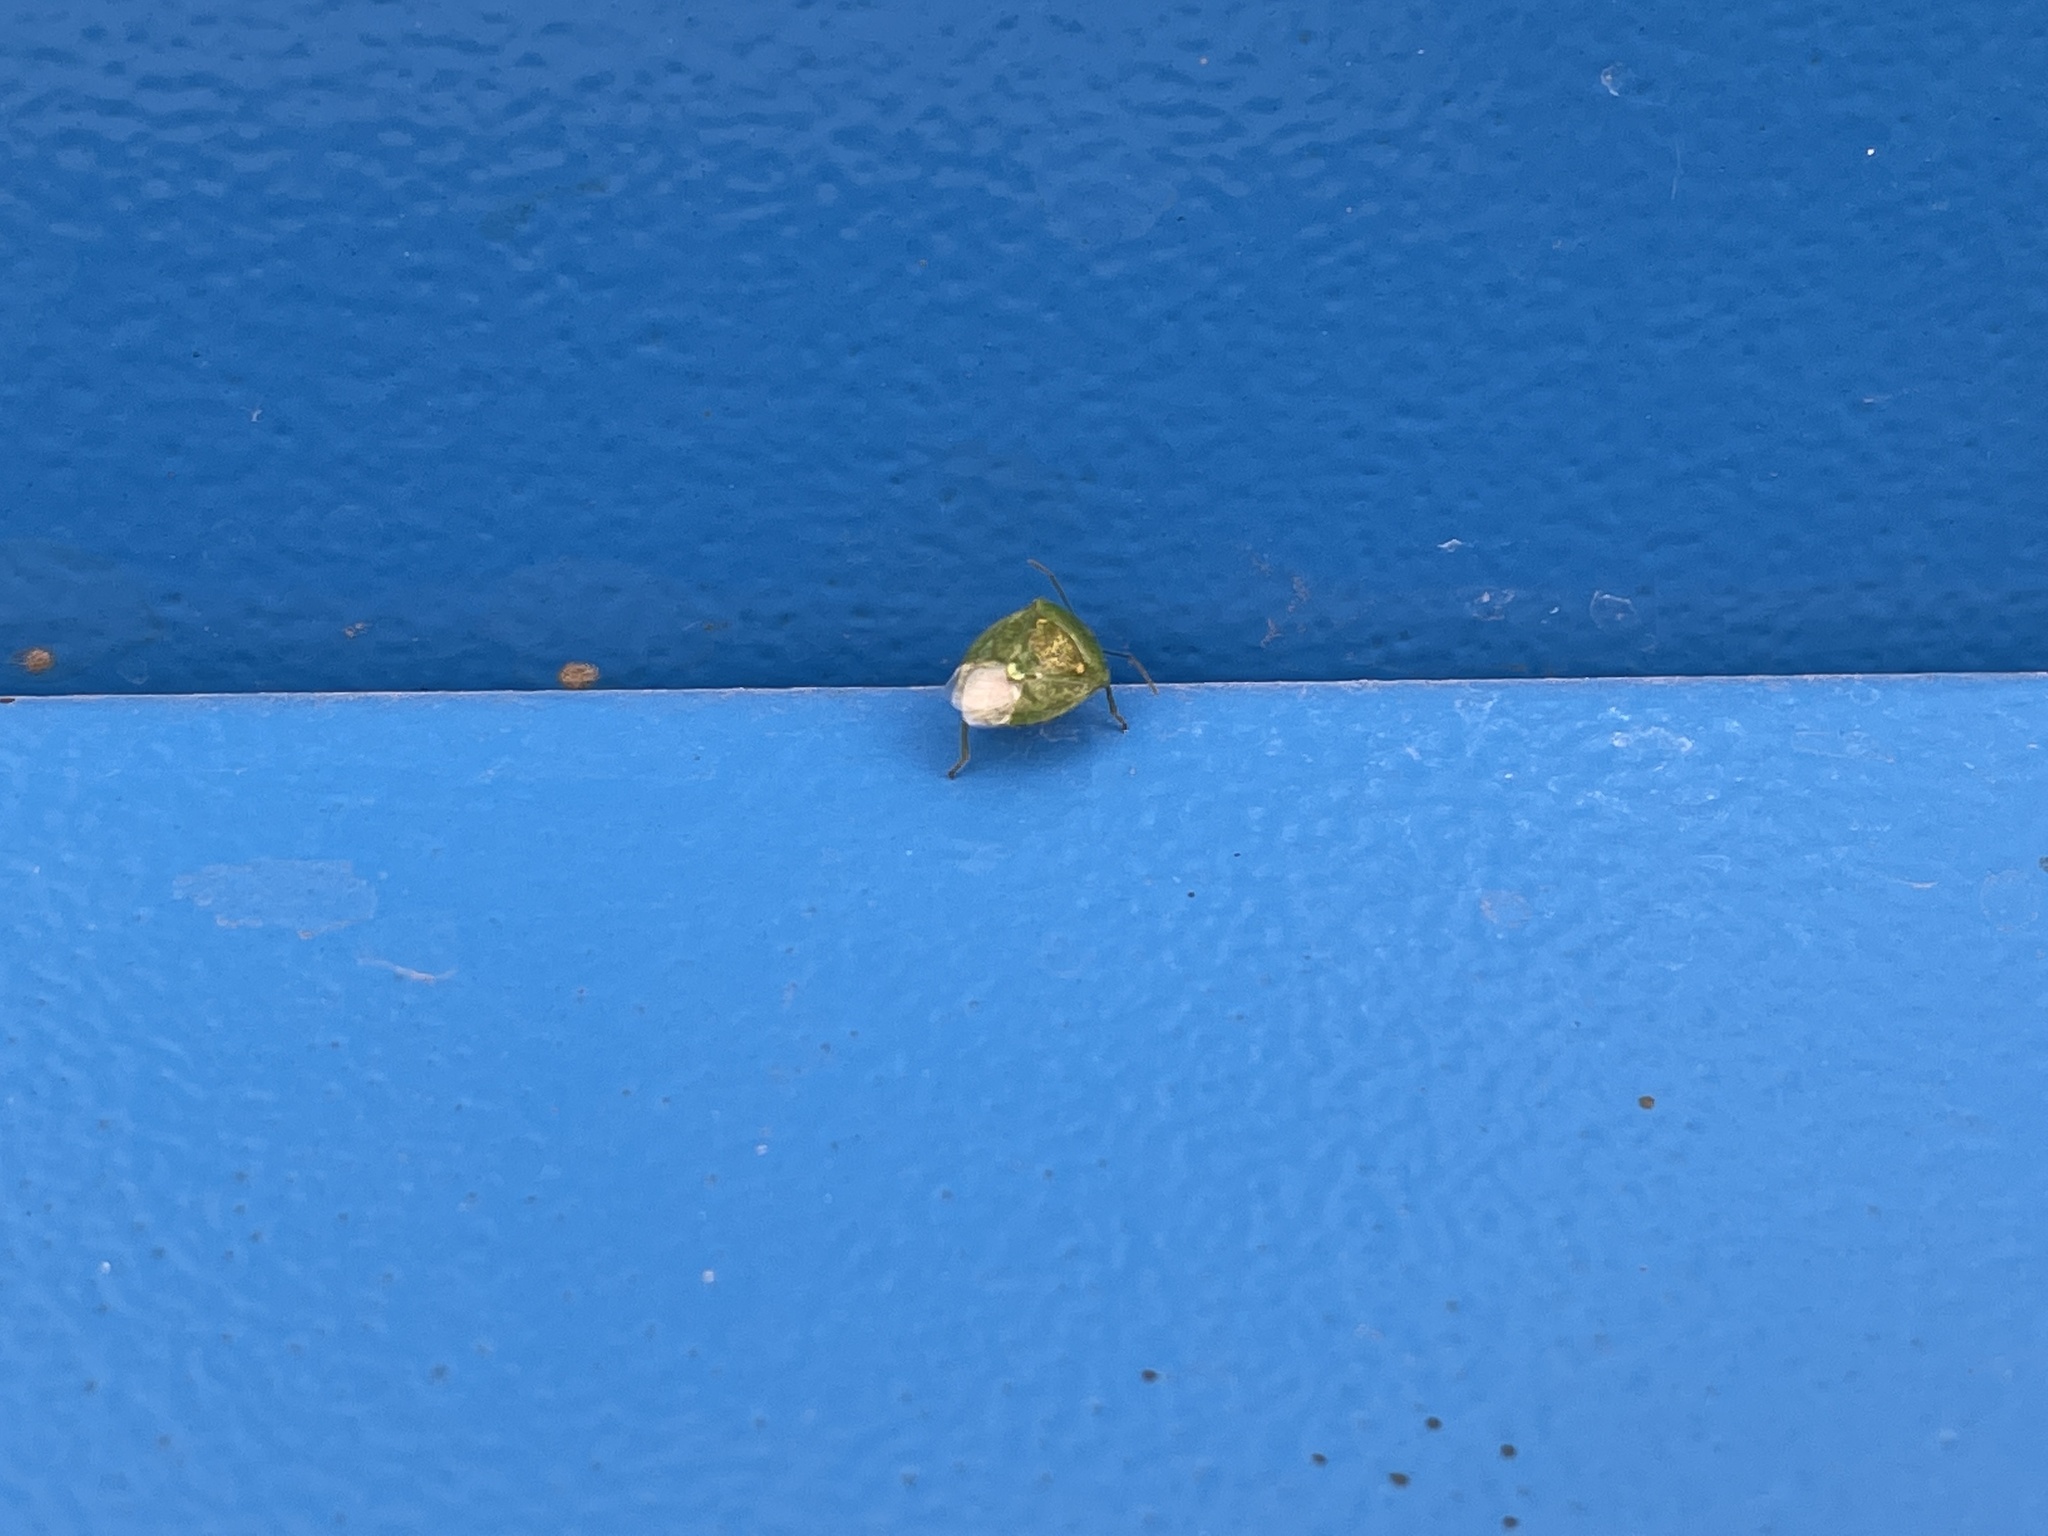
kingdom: Animalia
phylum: Arthropoda
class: Insecta
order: Hemiptera
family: Pentatomidae
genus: Banasa
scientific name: Banasa euchlora
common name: Cedar berry bug
